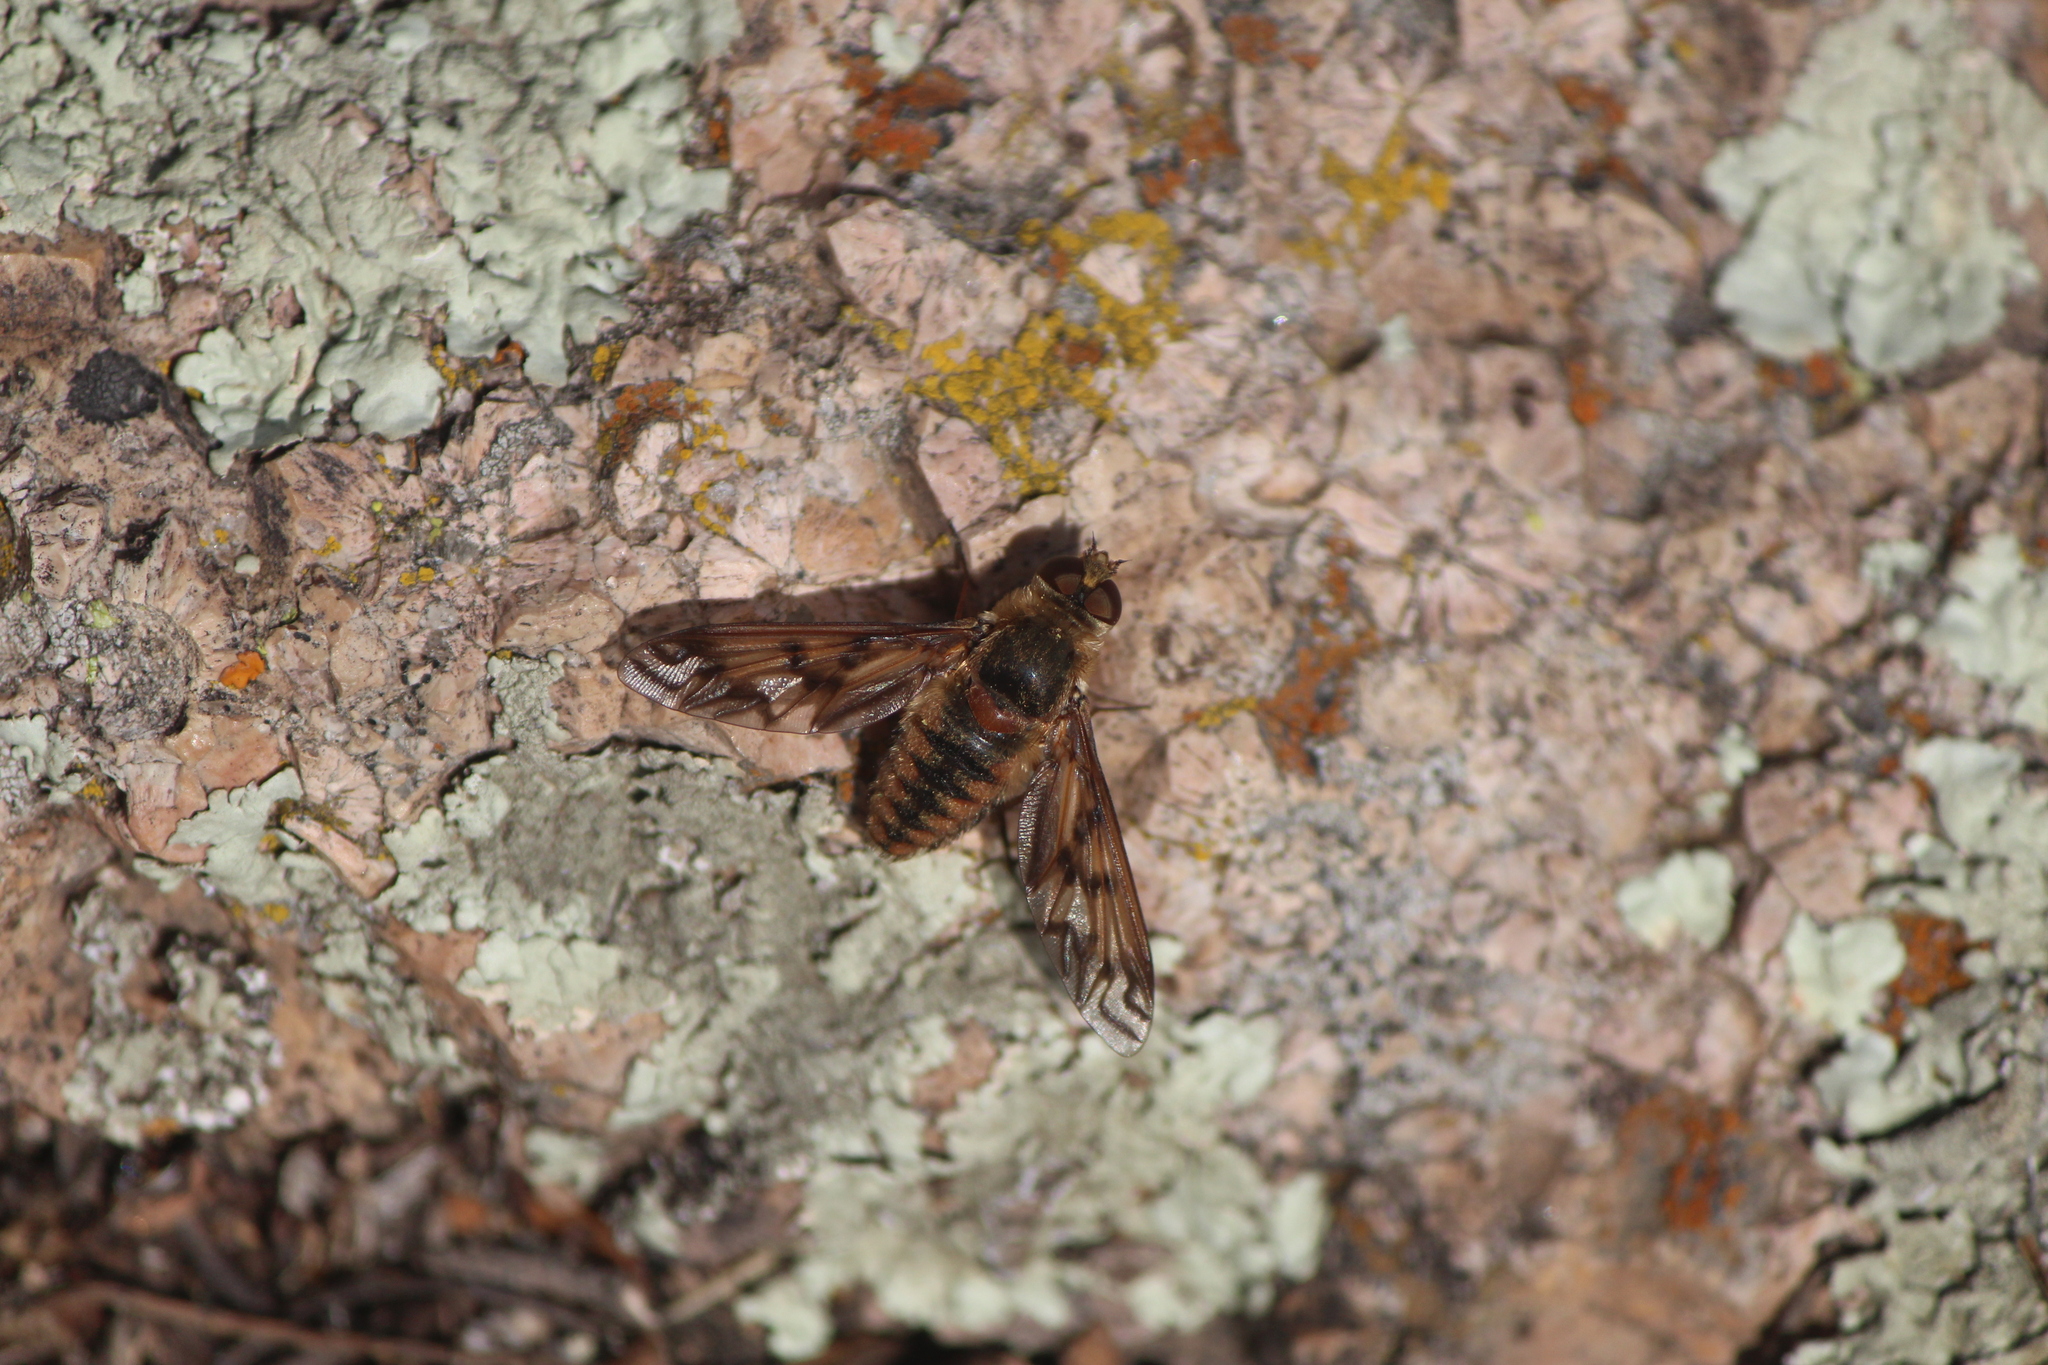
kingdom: Animalia
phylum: Arthropoda
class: Insecta
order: Diptera
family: Bombyliidae
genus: Poecilanthrax
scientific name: Poecilanthrax arethusa
